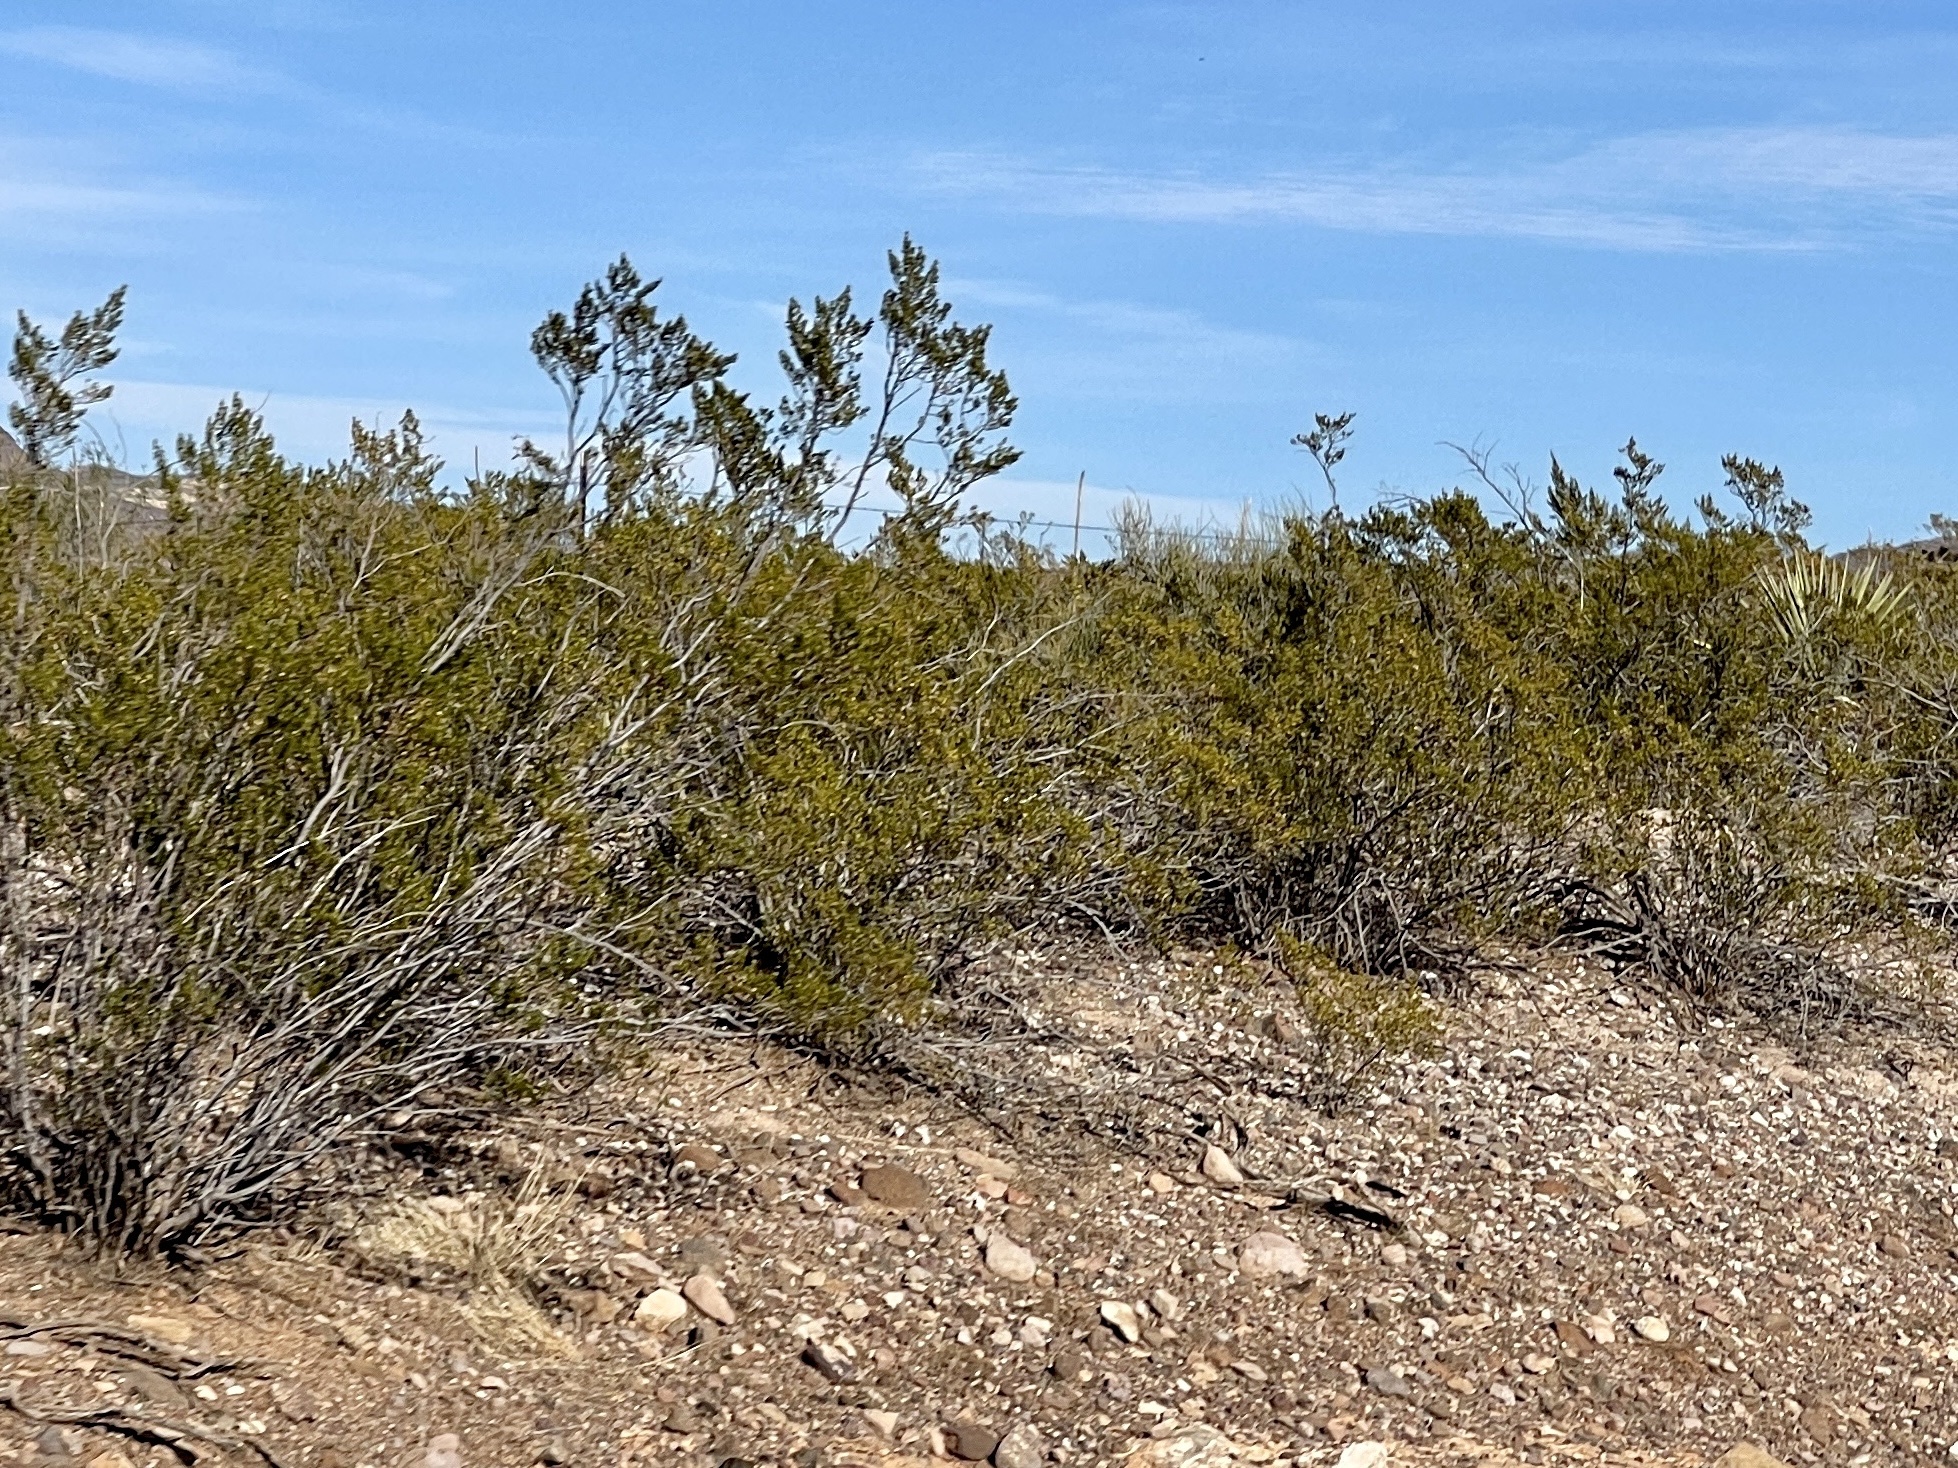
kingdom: Plantae
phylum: Tracheophyta
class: Magnoliopsida
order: Zygophyllales
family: Zygophyllaceae
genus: Larrea
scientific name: Larrea tridentata
